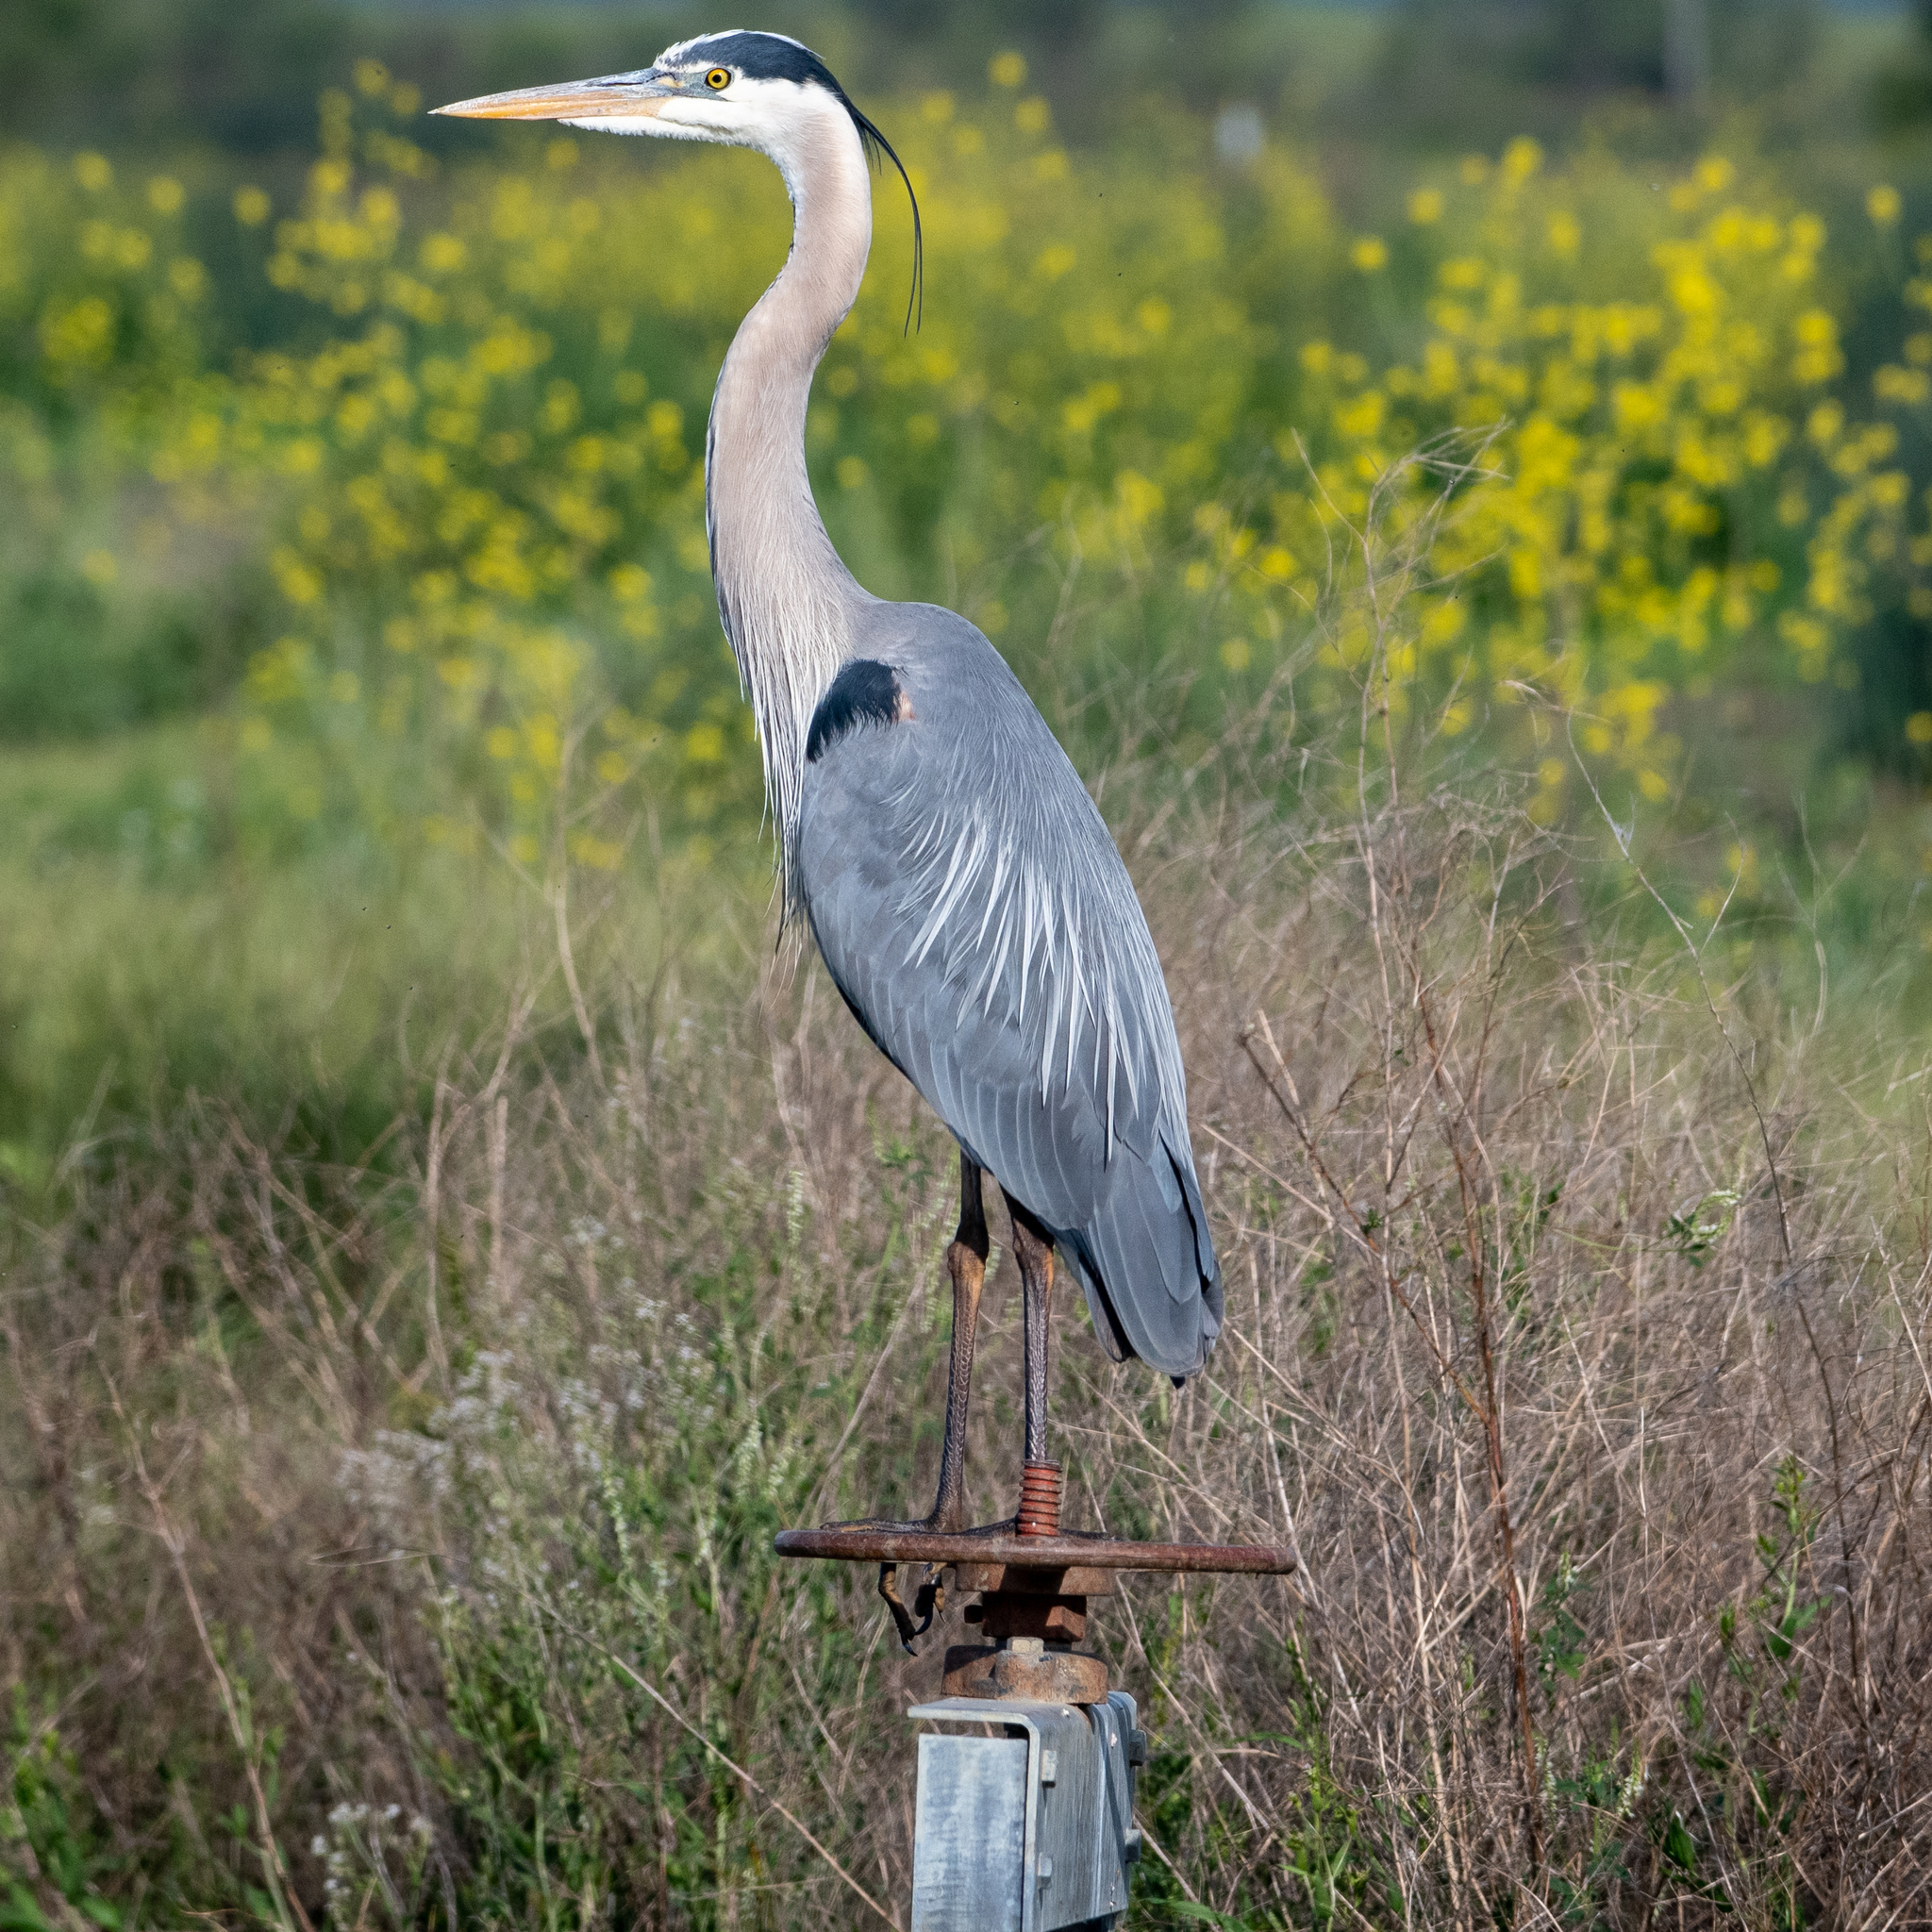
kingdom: Animalia
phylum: Chordata
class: Aves
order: Pelecaniformes
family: Ardeidae
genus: Ardea
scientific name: Ardea herodias
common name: Great blue heron
